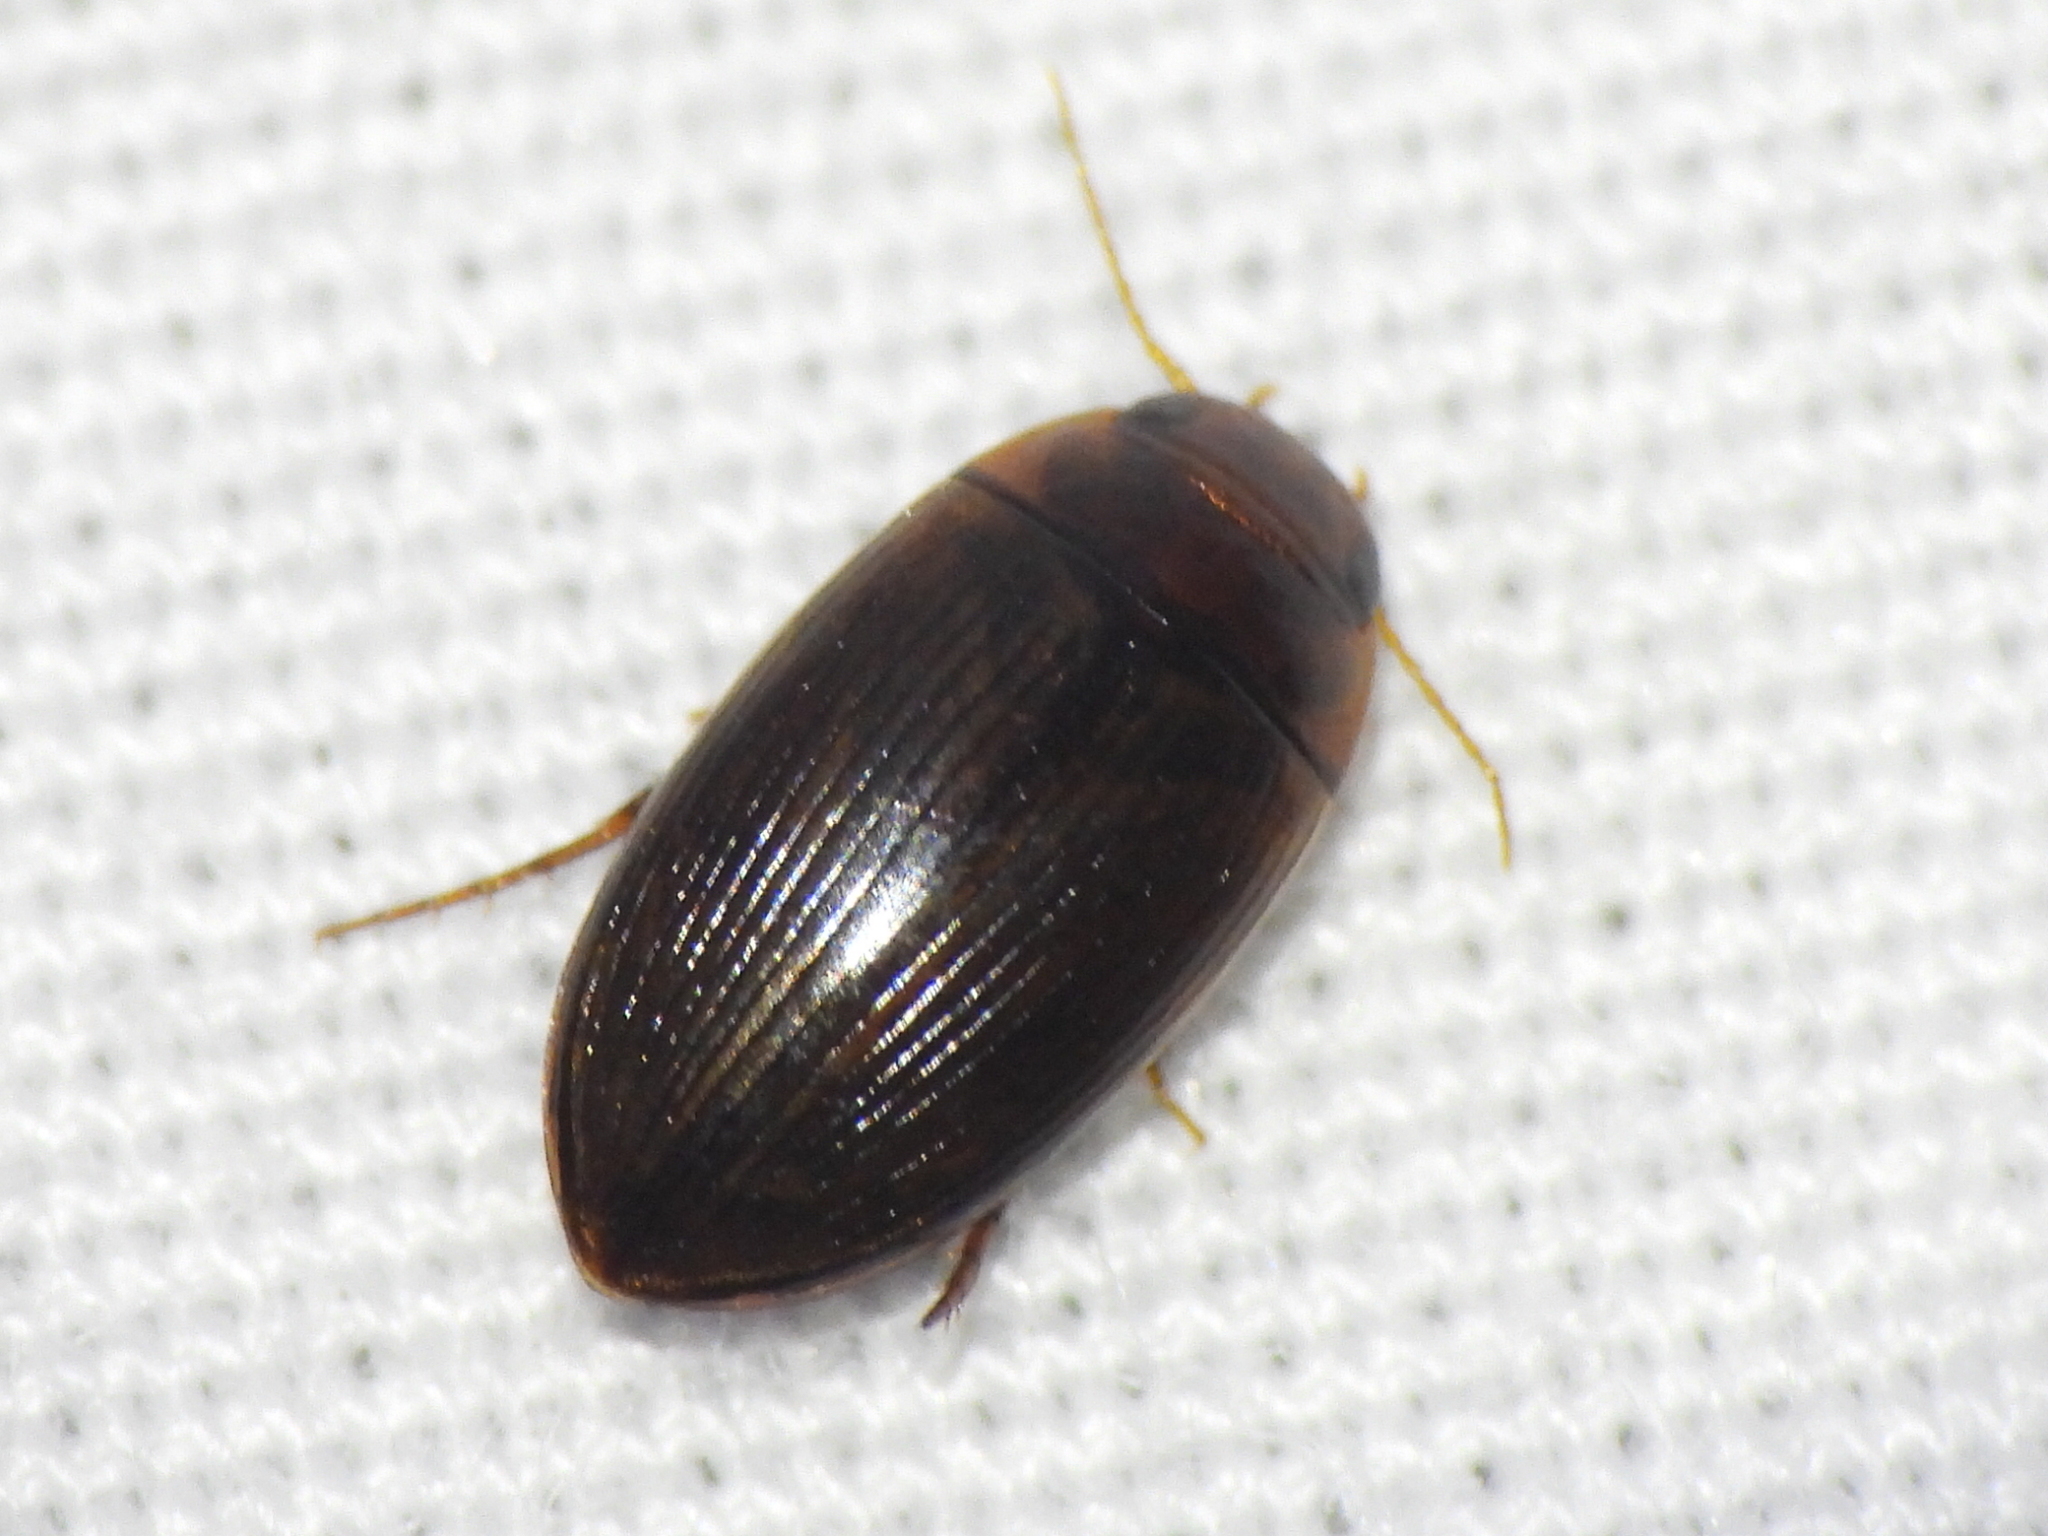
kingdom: Animalia
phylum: Arthropoda
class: Insecta
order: Coleoptera
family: Dytiscidae
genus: Copelatus
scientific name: Copelatus glyphicus
